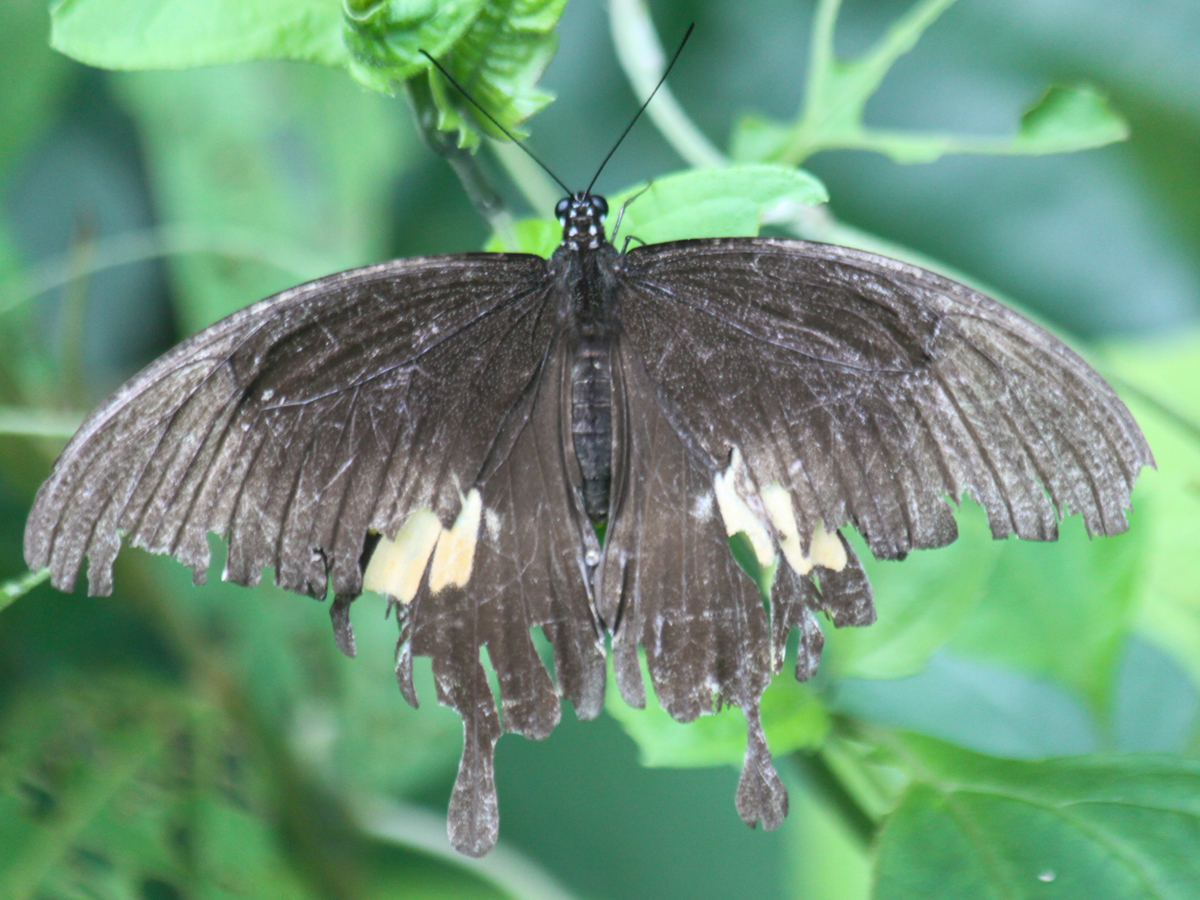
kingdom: Animalia
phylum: Arthropoda
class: Insecta
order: Lepidoptera
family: Papilionidae
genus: Atrophaneura
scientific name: Atrophaneura varuna
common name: Common batwing
